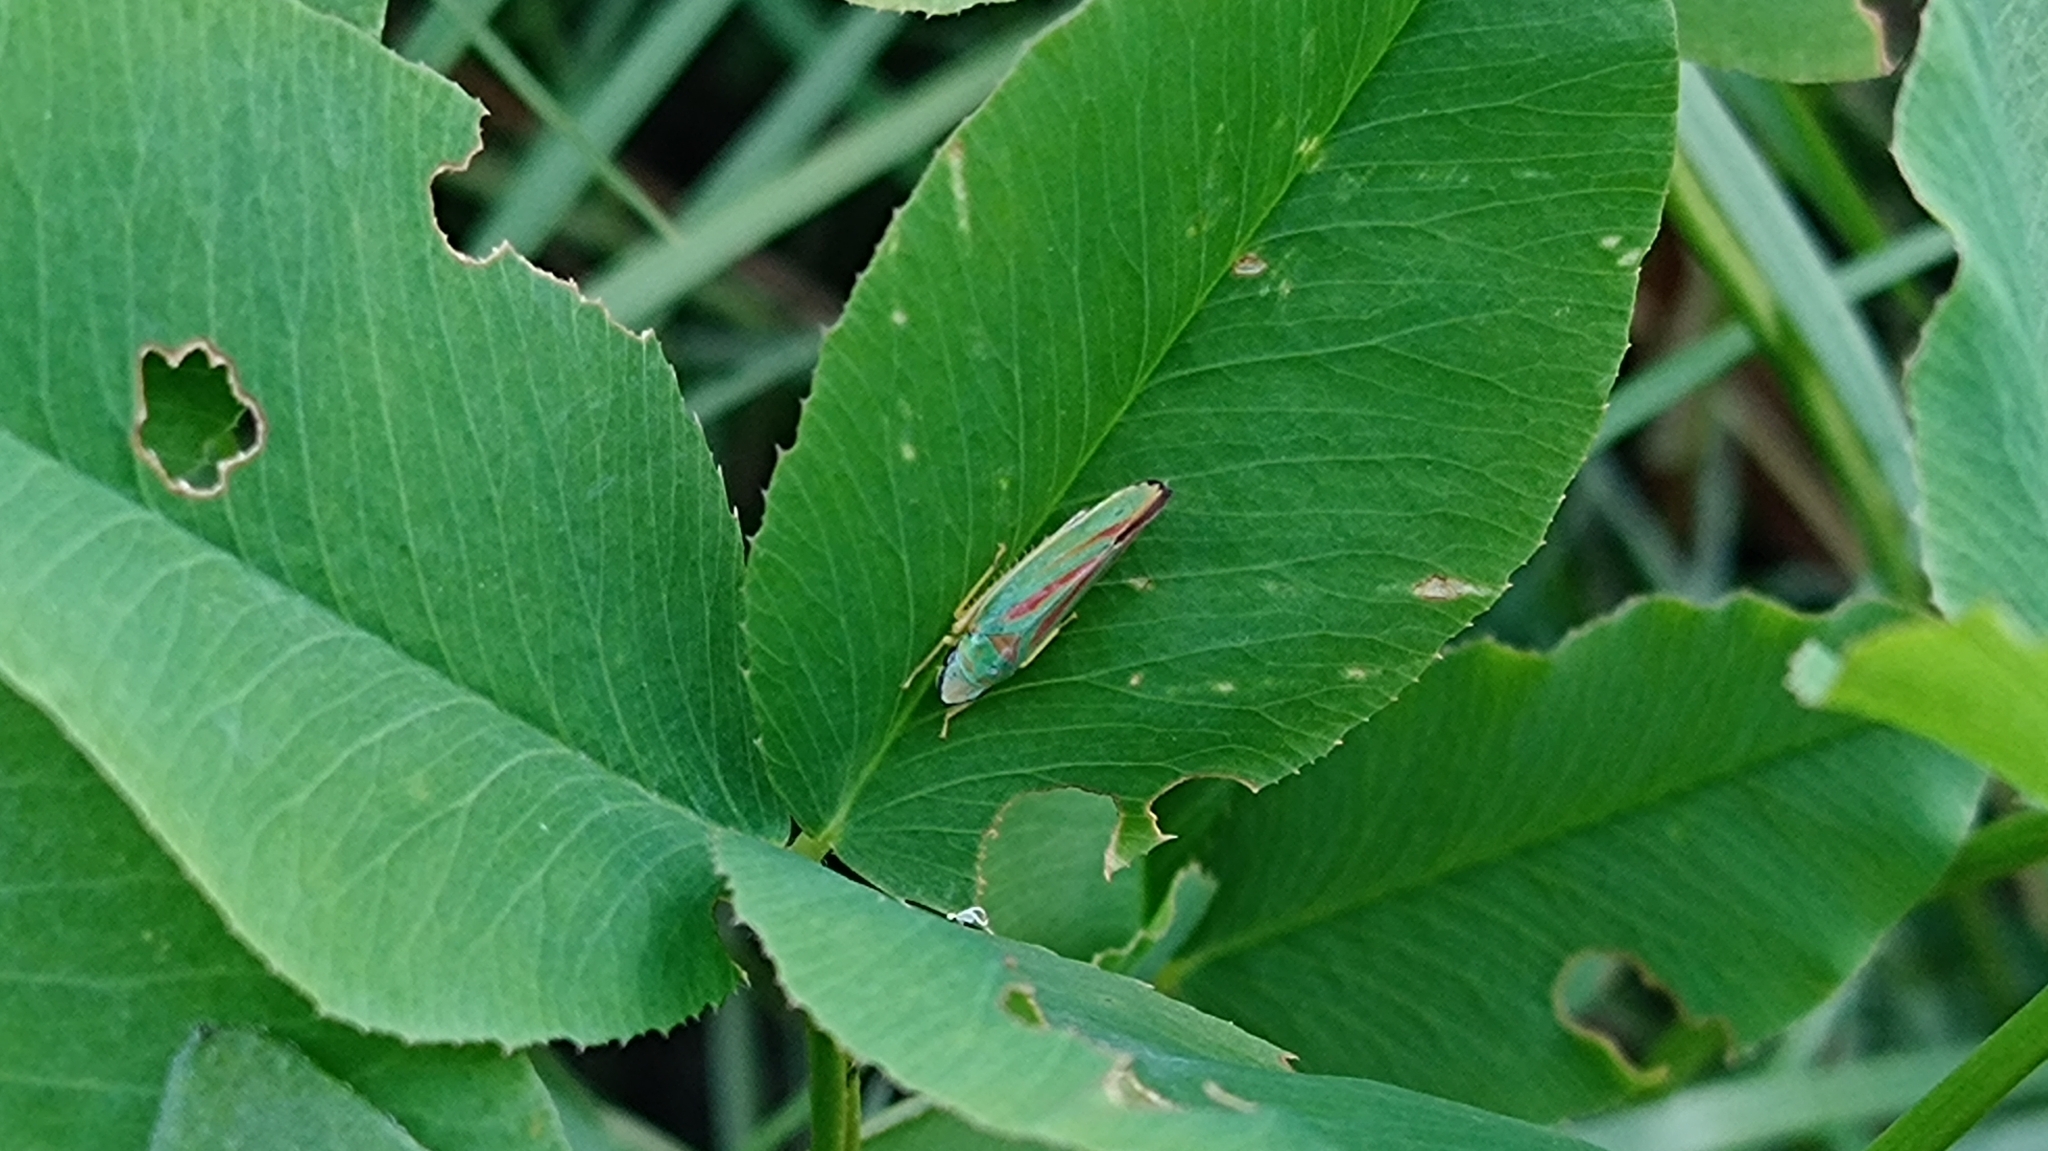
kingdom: Animalia
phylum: Arthropoda
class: Insecta
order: Hemiptera
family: Cicadellidae
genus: Graphocephala
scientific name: Graphocephala fennahi
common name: Rhododendron leafhopper
